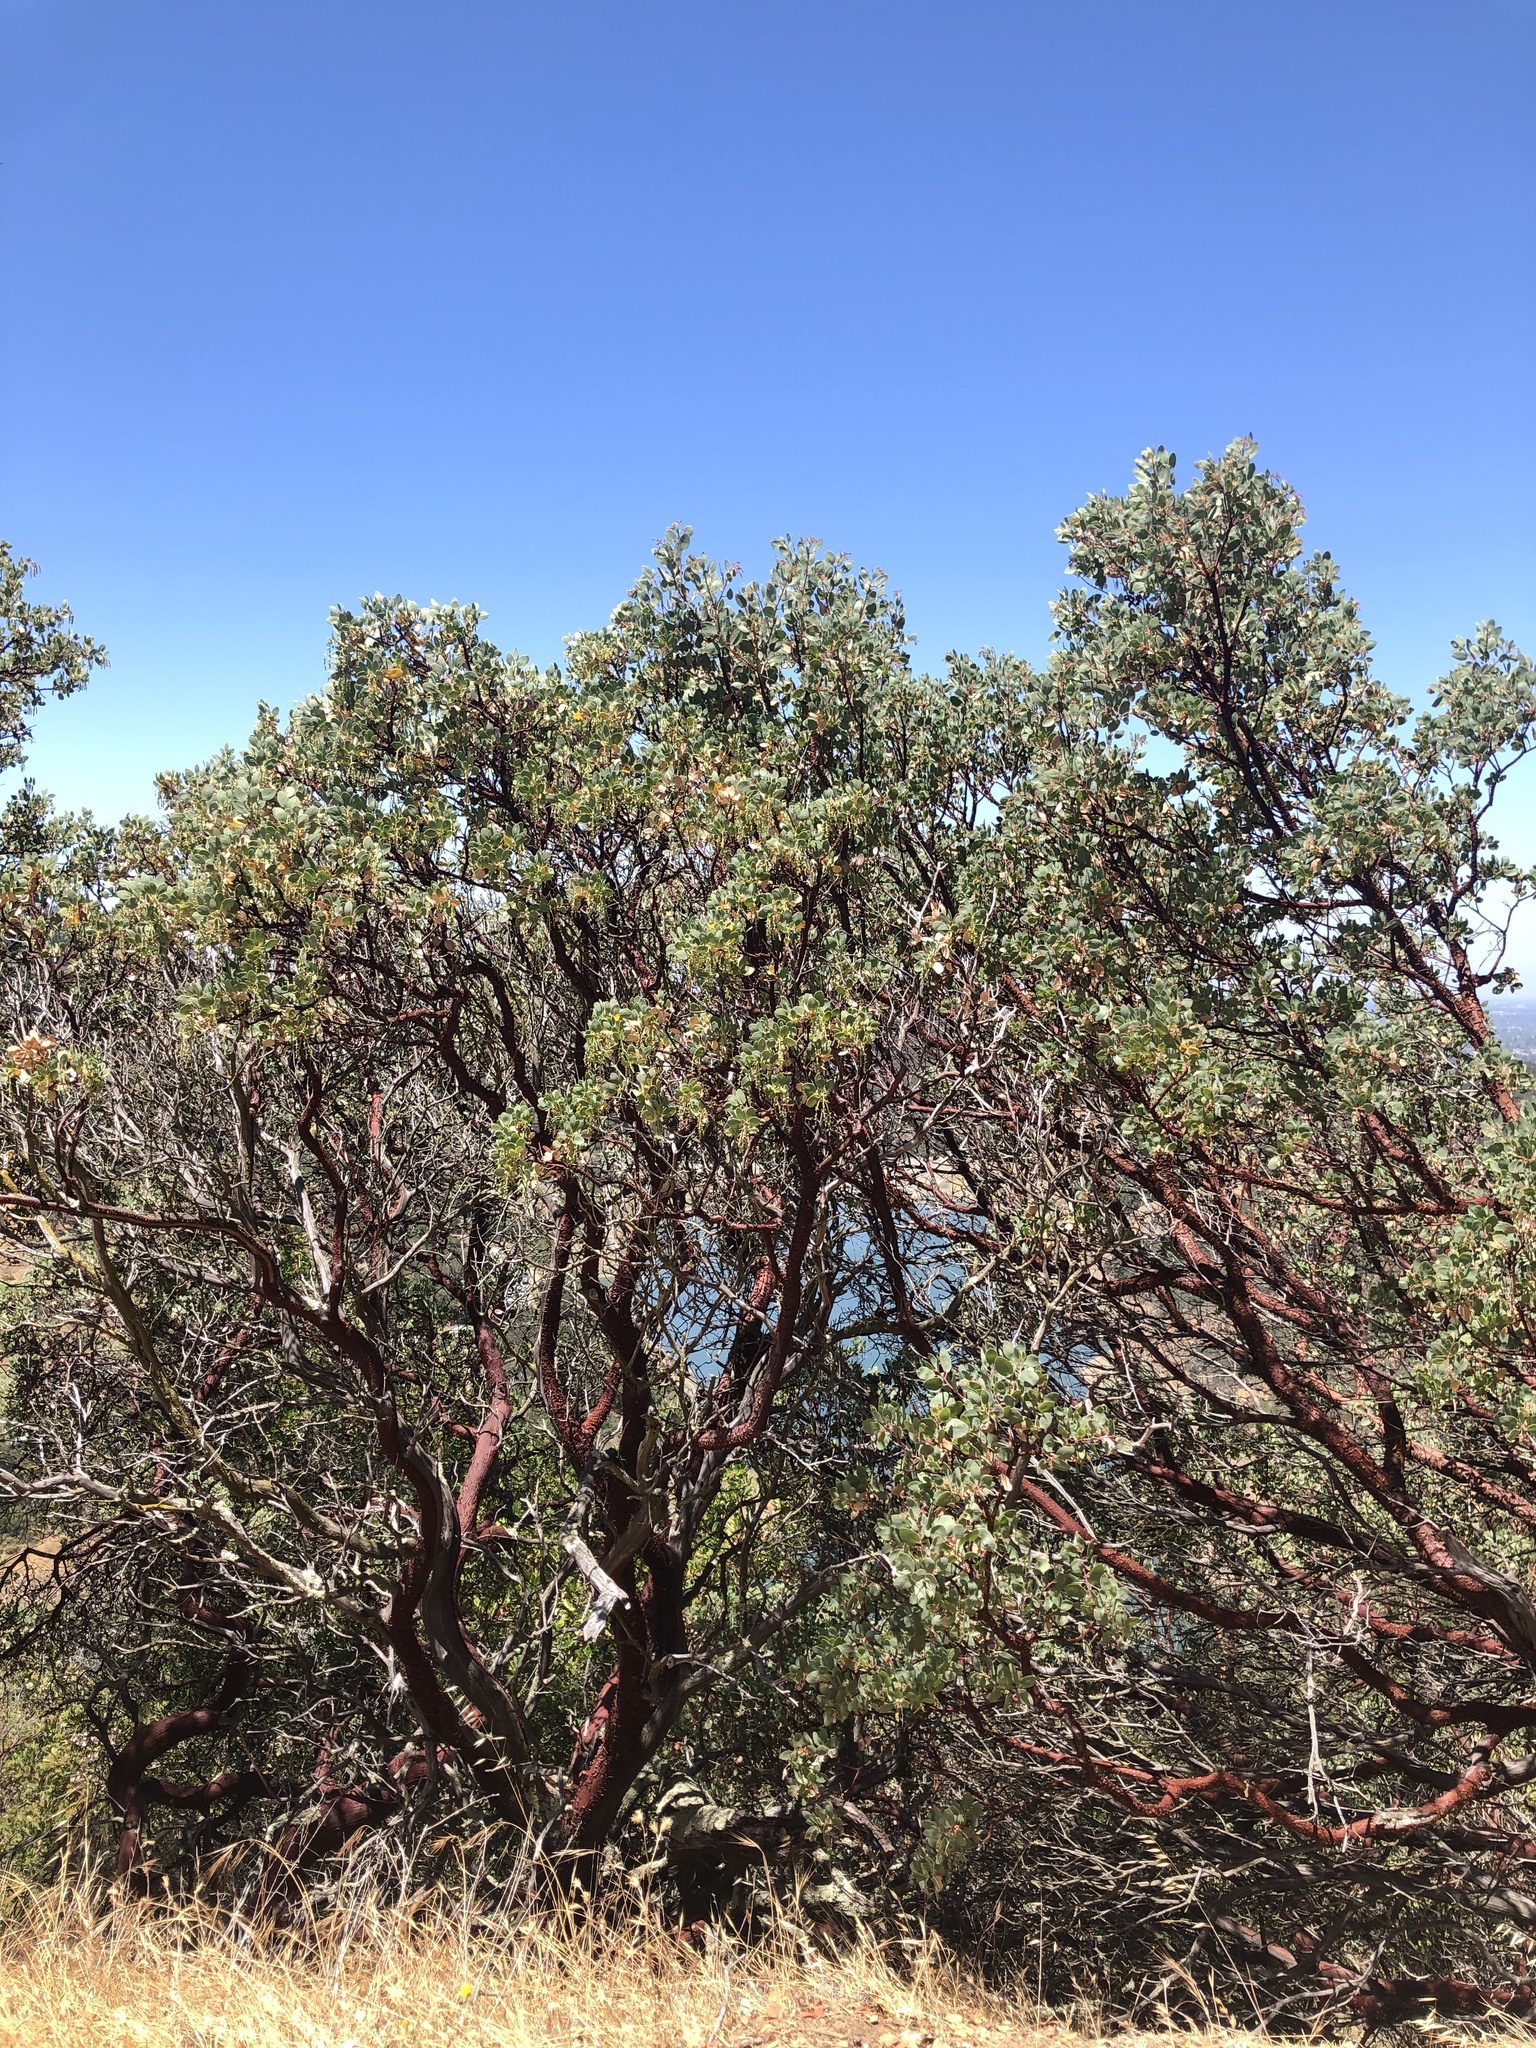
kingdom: Plantae
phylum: Tracheophyta
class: Magnoliopsida
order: Ericales
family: Ericaceae
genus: Arctostaphylos
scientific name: Arctostaphylos glauca
